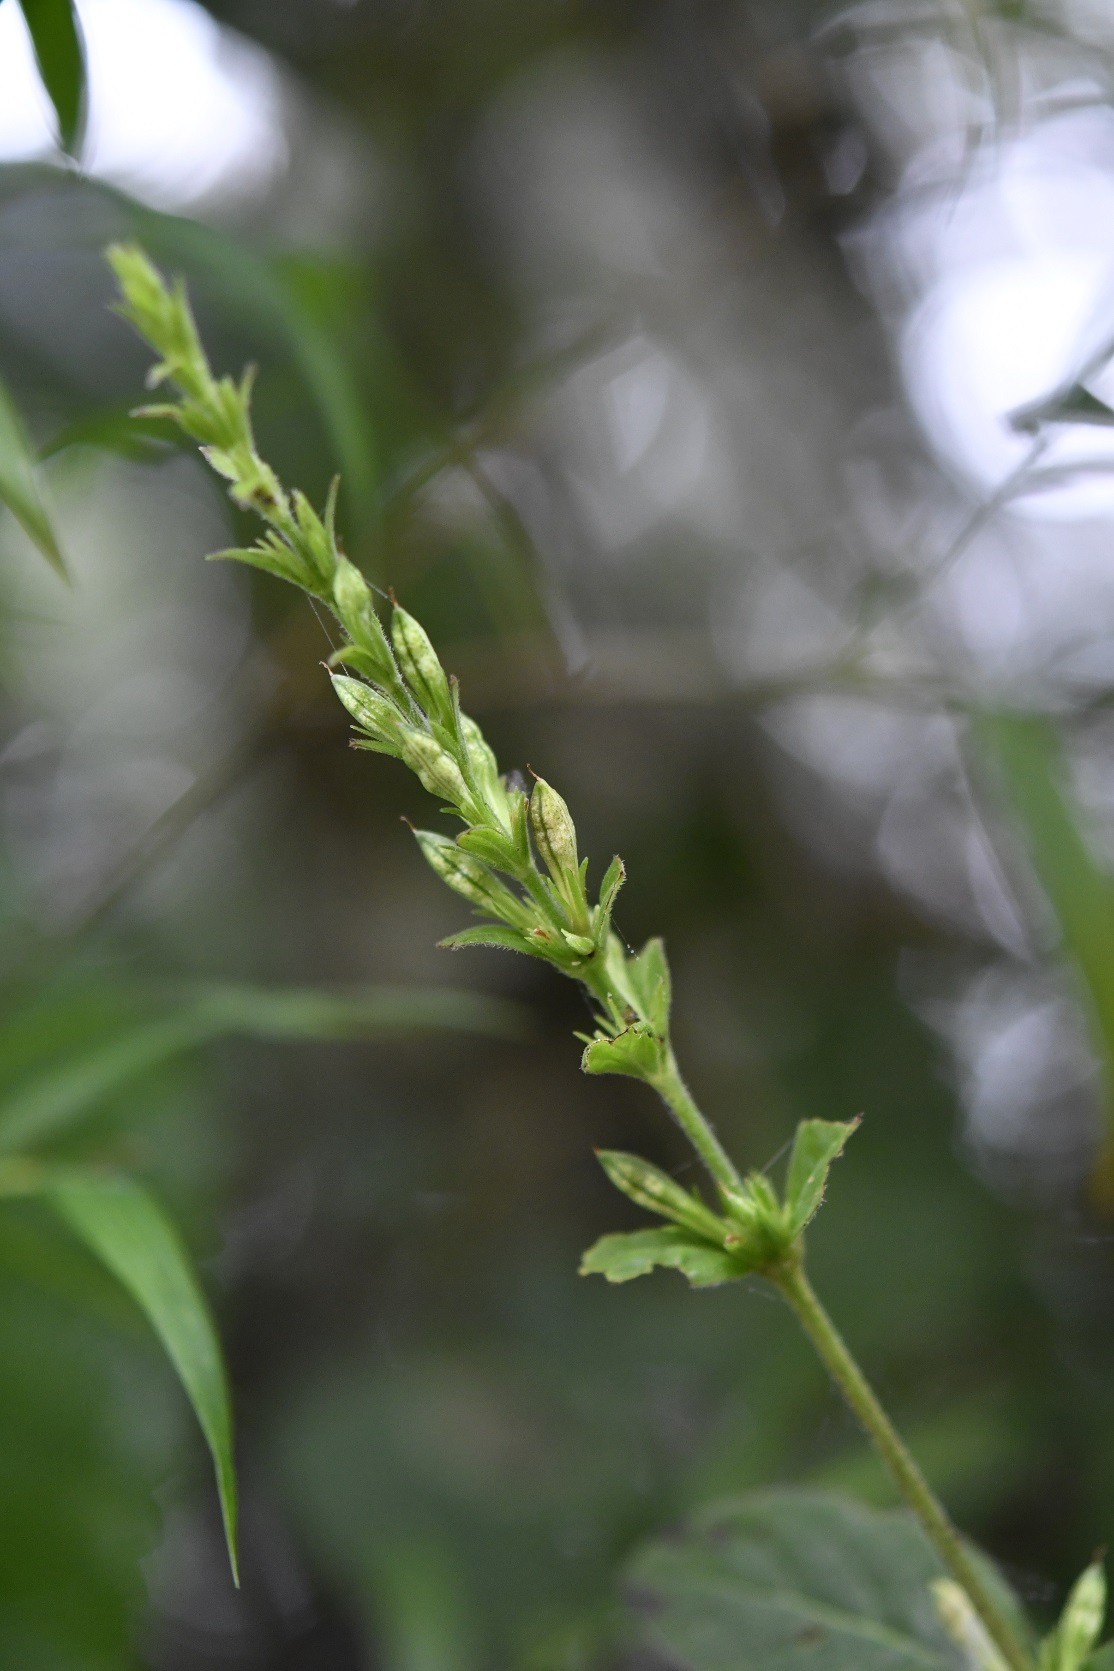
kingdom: Plantae
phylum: Tracheophyta
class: Magnoliopsida
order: Lamiales
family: Acanthaceae
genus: Pseuderanthemum
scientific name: Pseuderanthemum alatum
